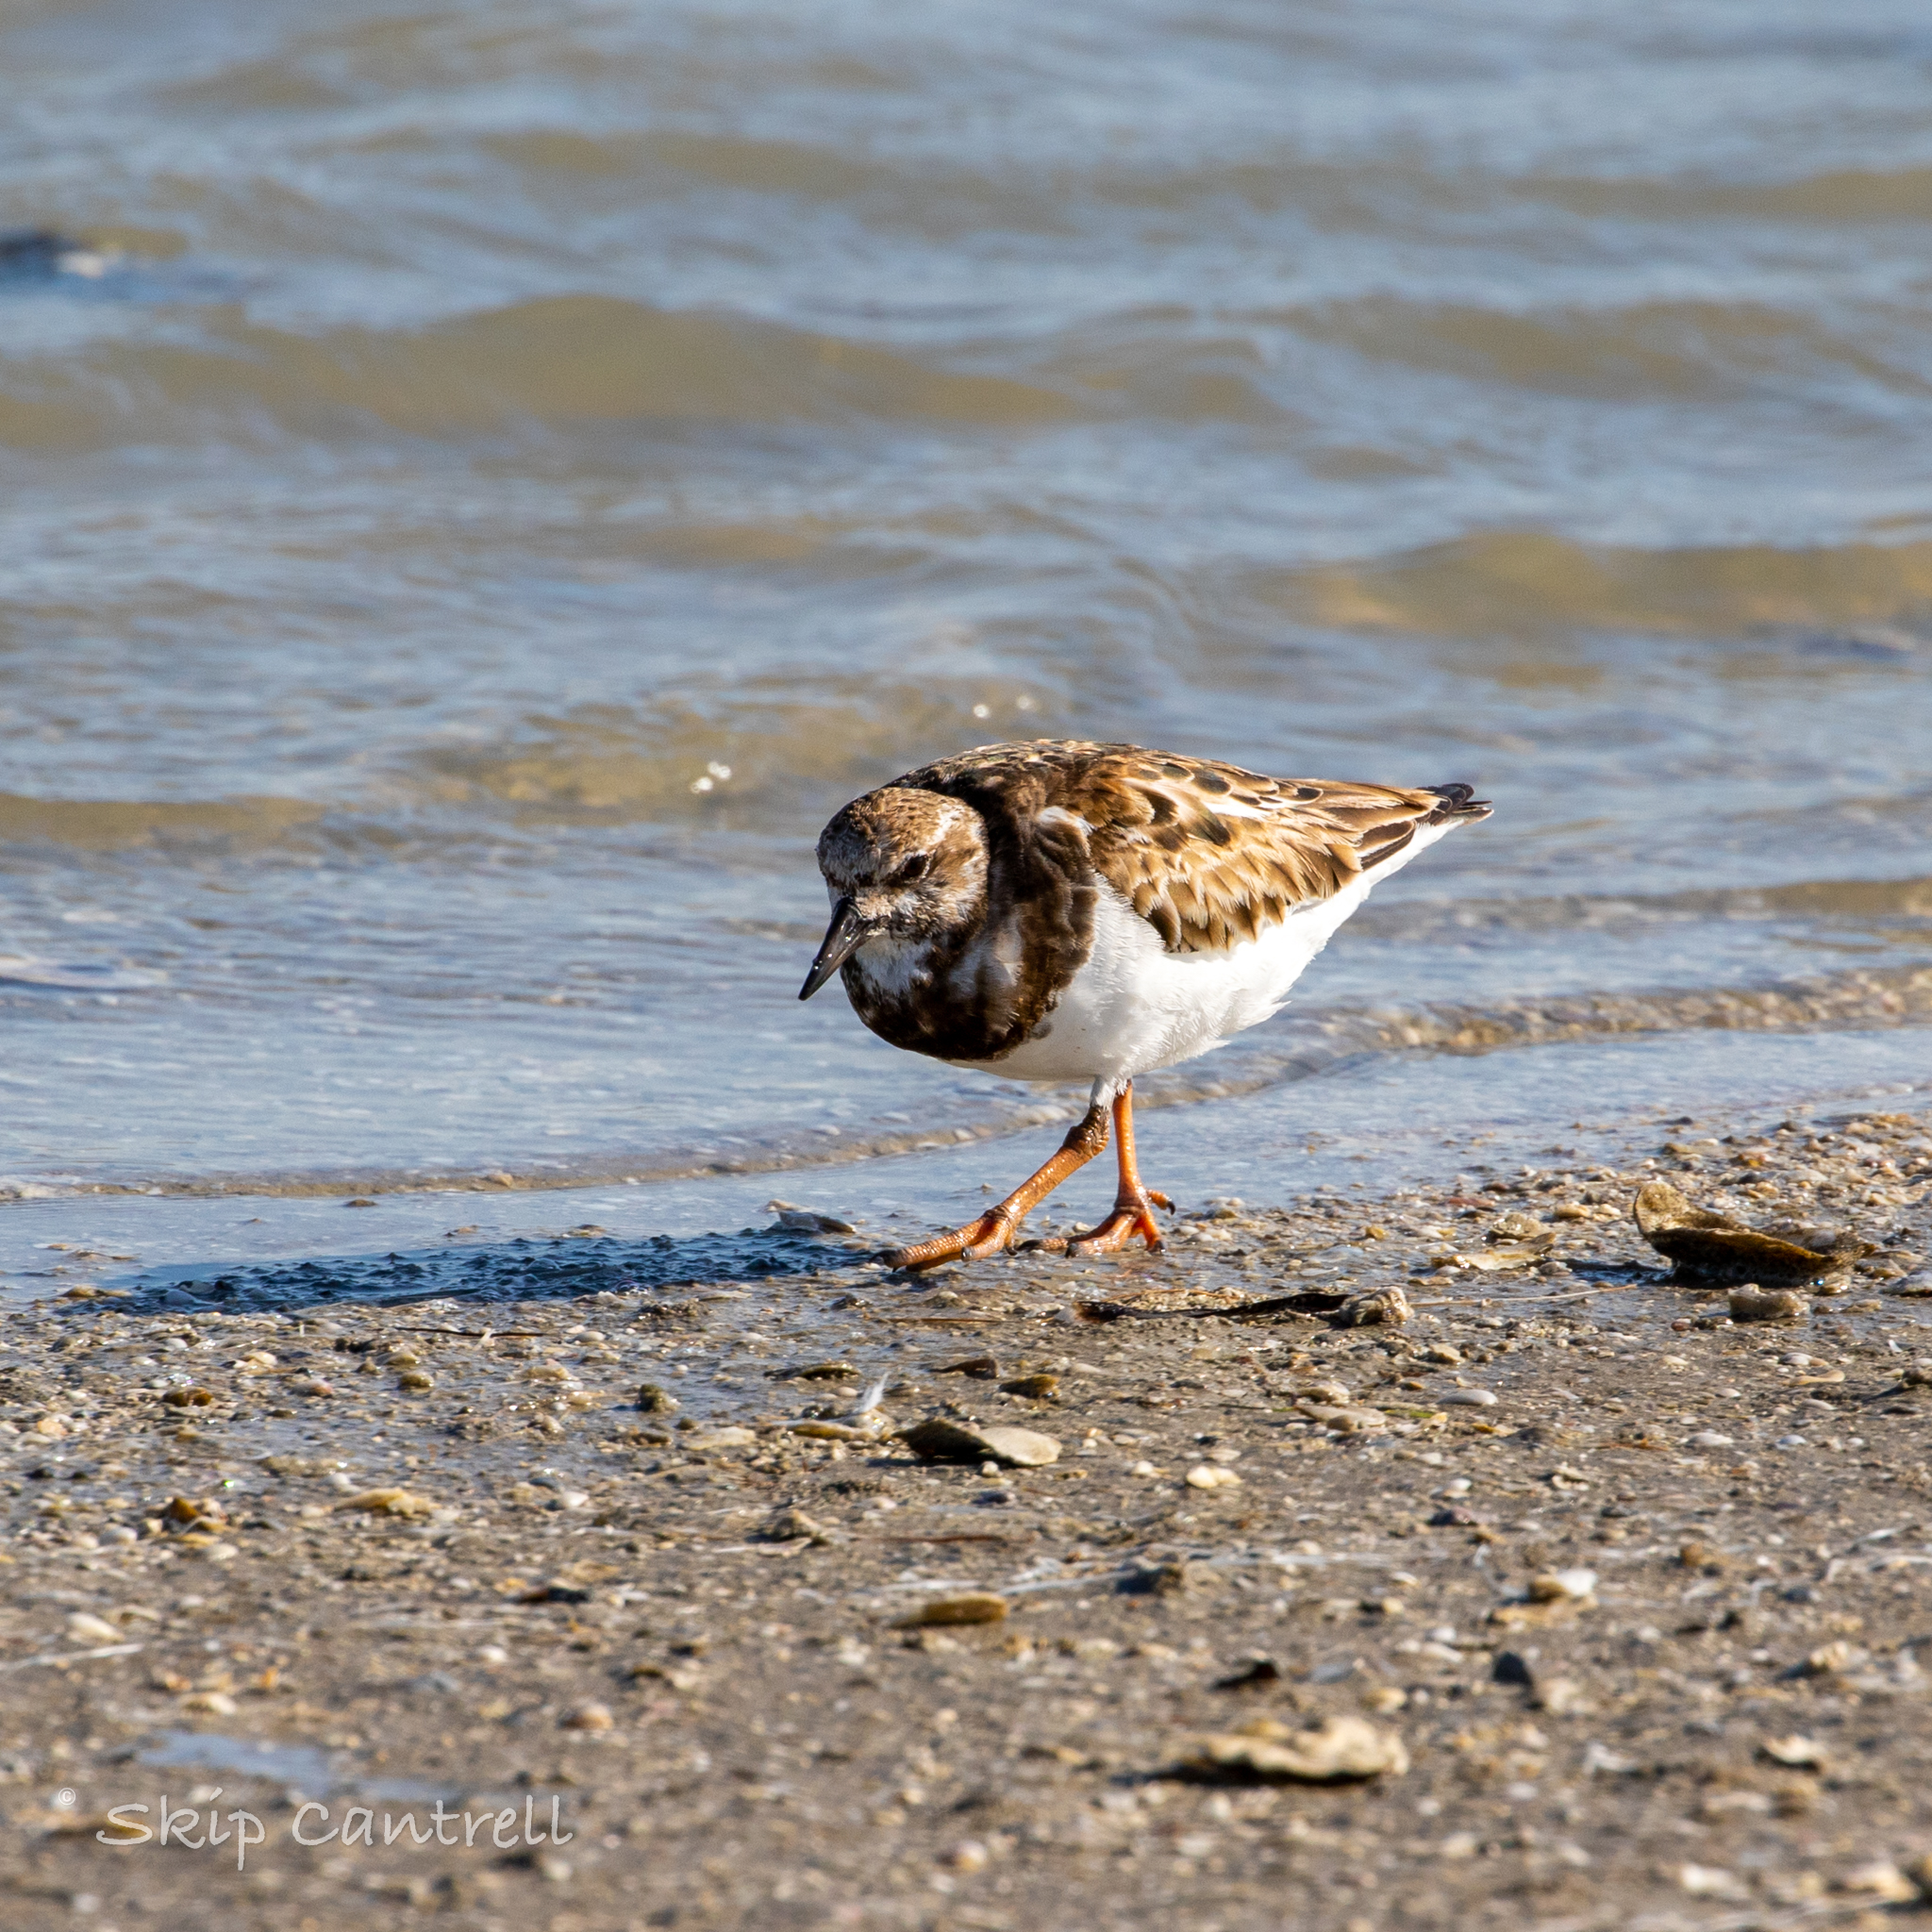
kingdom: Animalia
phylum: Chordata
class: Aves
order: Charadriiformes
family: Scolopacidae
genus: Arenaria
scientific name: Arenaria interpres
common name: Ruddy turnstone
